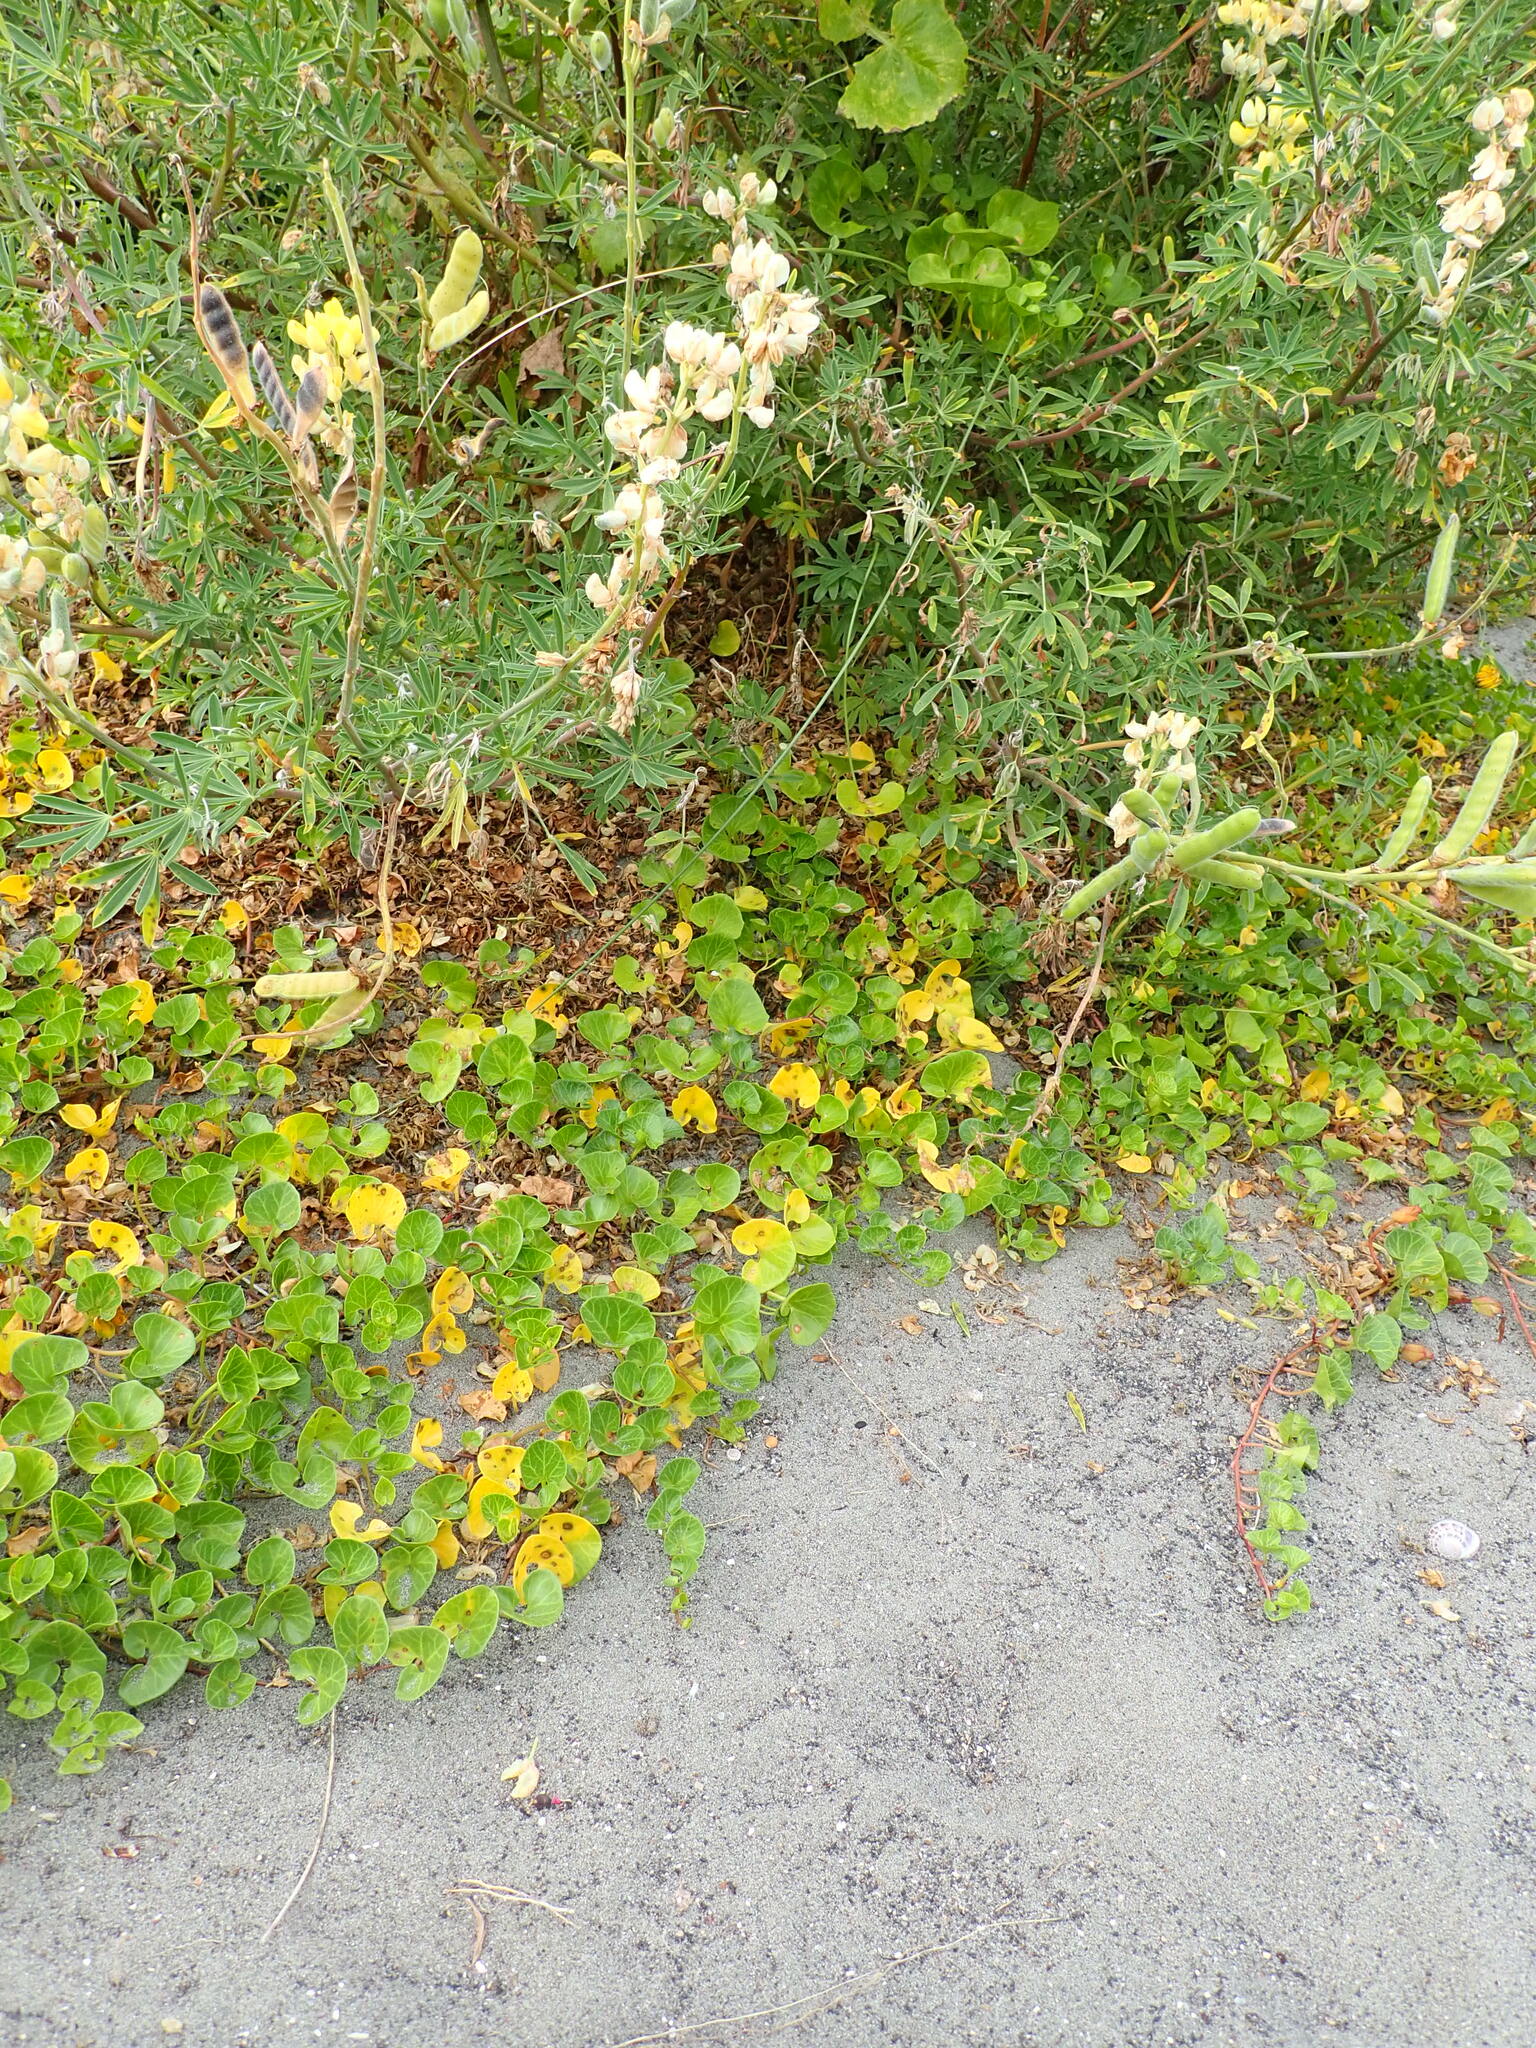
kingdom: Plantae
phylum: Tracheophyta
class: Magnoliopsida
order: Solanales
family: Convolvulaceae
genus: Calystegia
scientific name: Calystegia soldanella
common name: Sea bindweed
